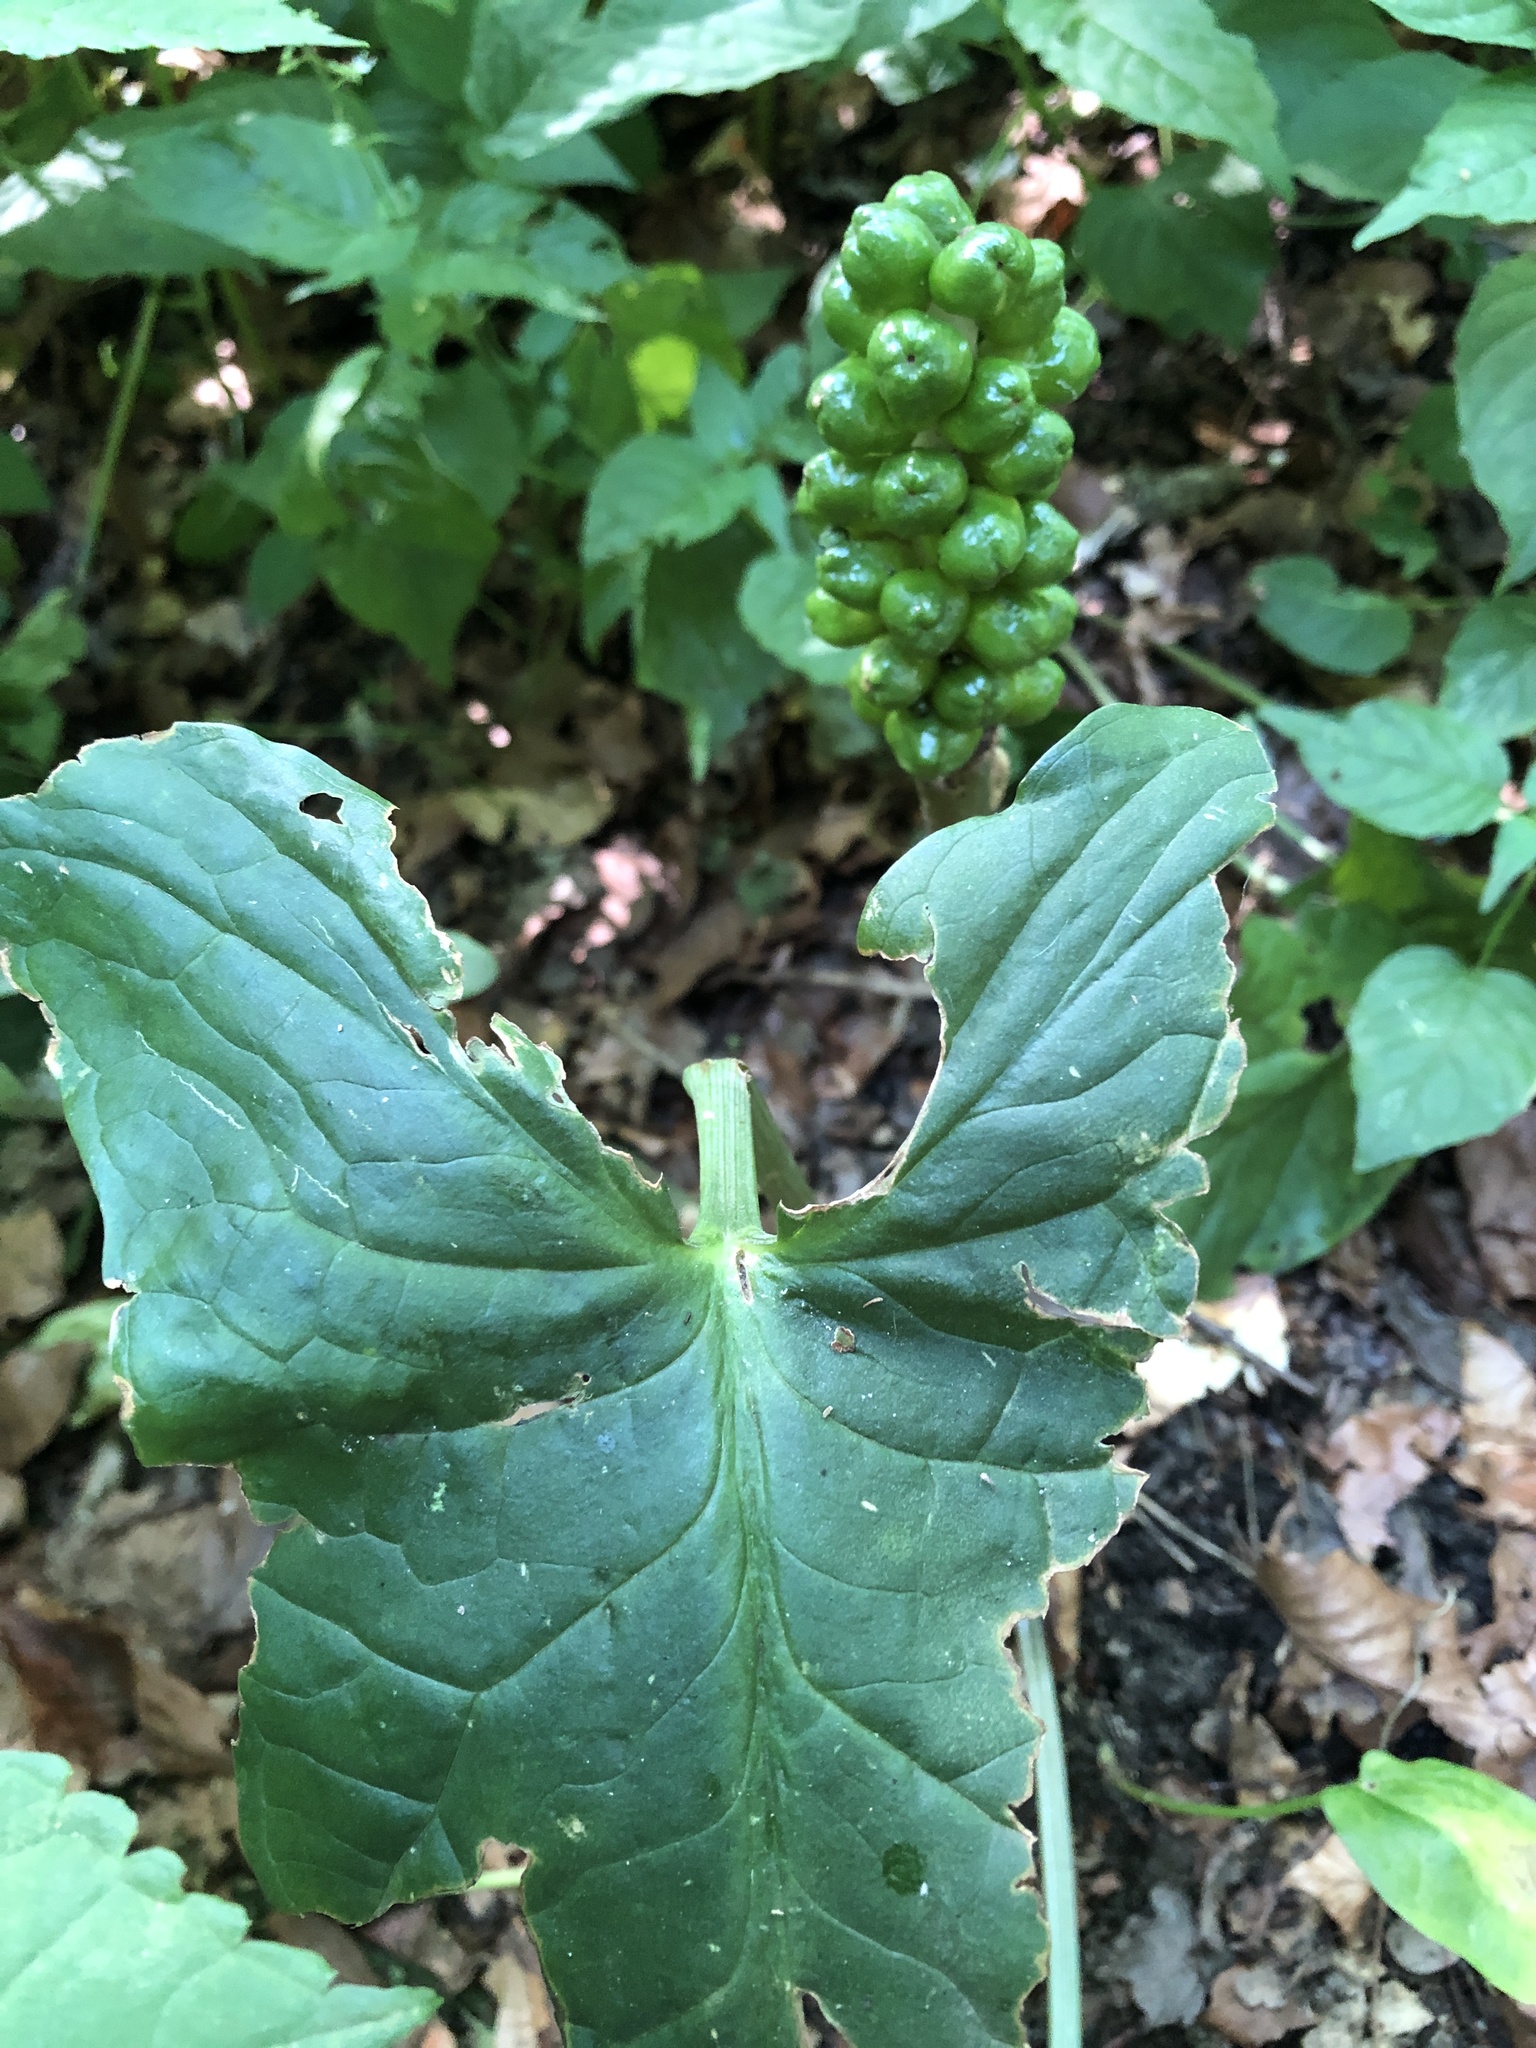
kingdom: Plantae
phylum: Tracheophyta
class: Liliopsida
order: Alismatales
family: Araceae
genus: Arum
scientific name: Arum maculatum
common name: Lords-and-ladies
